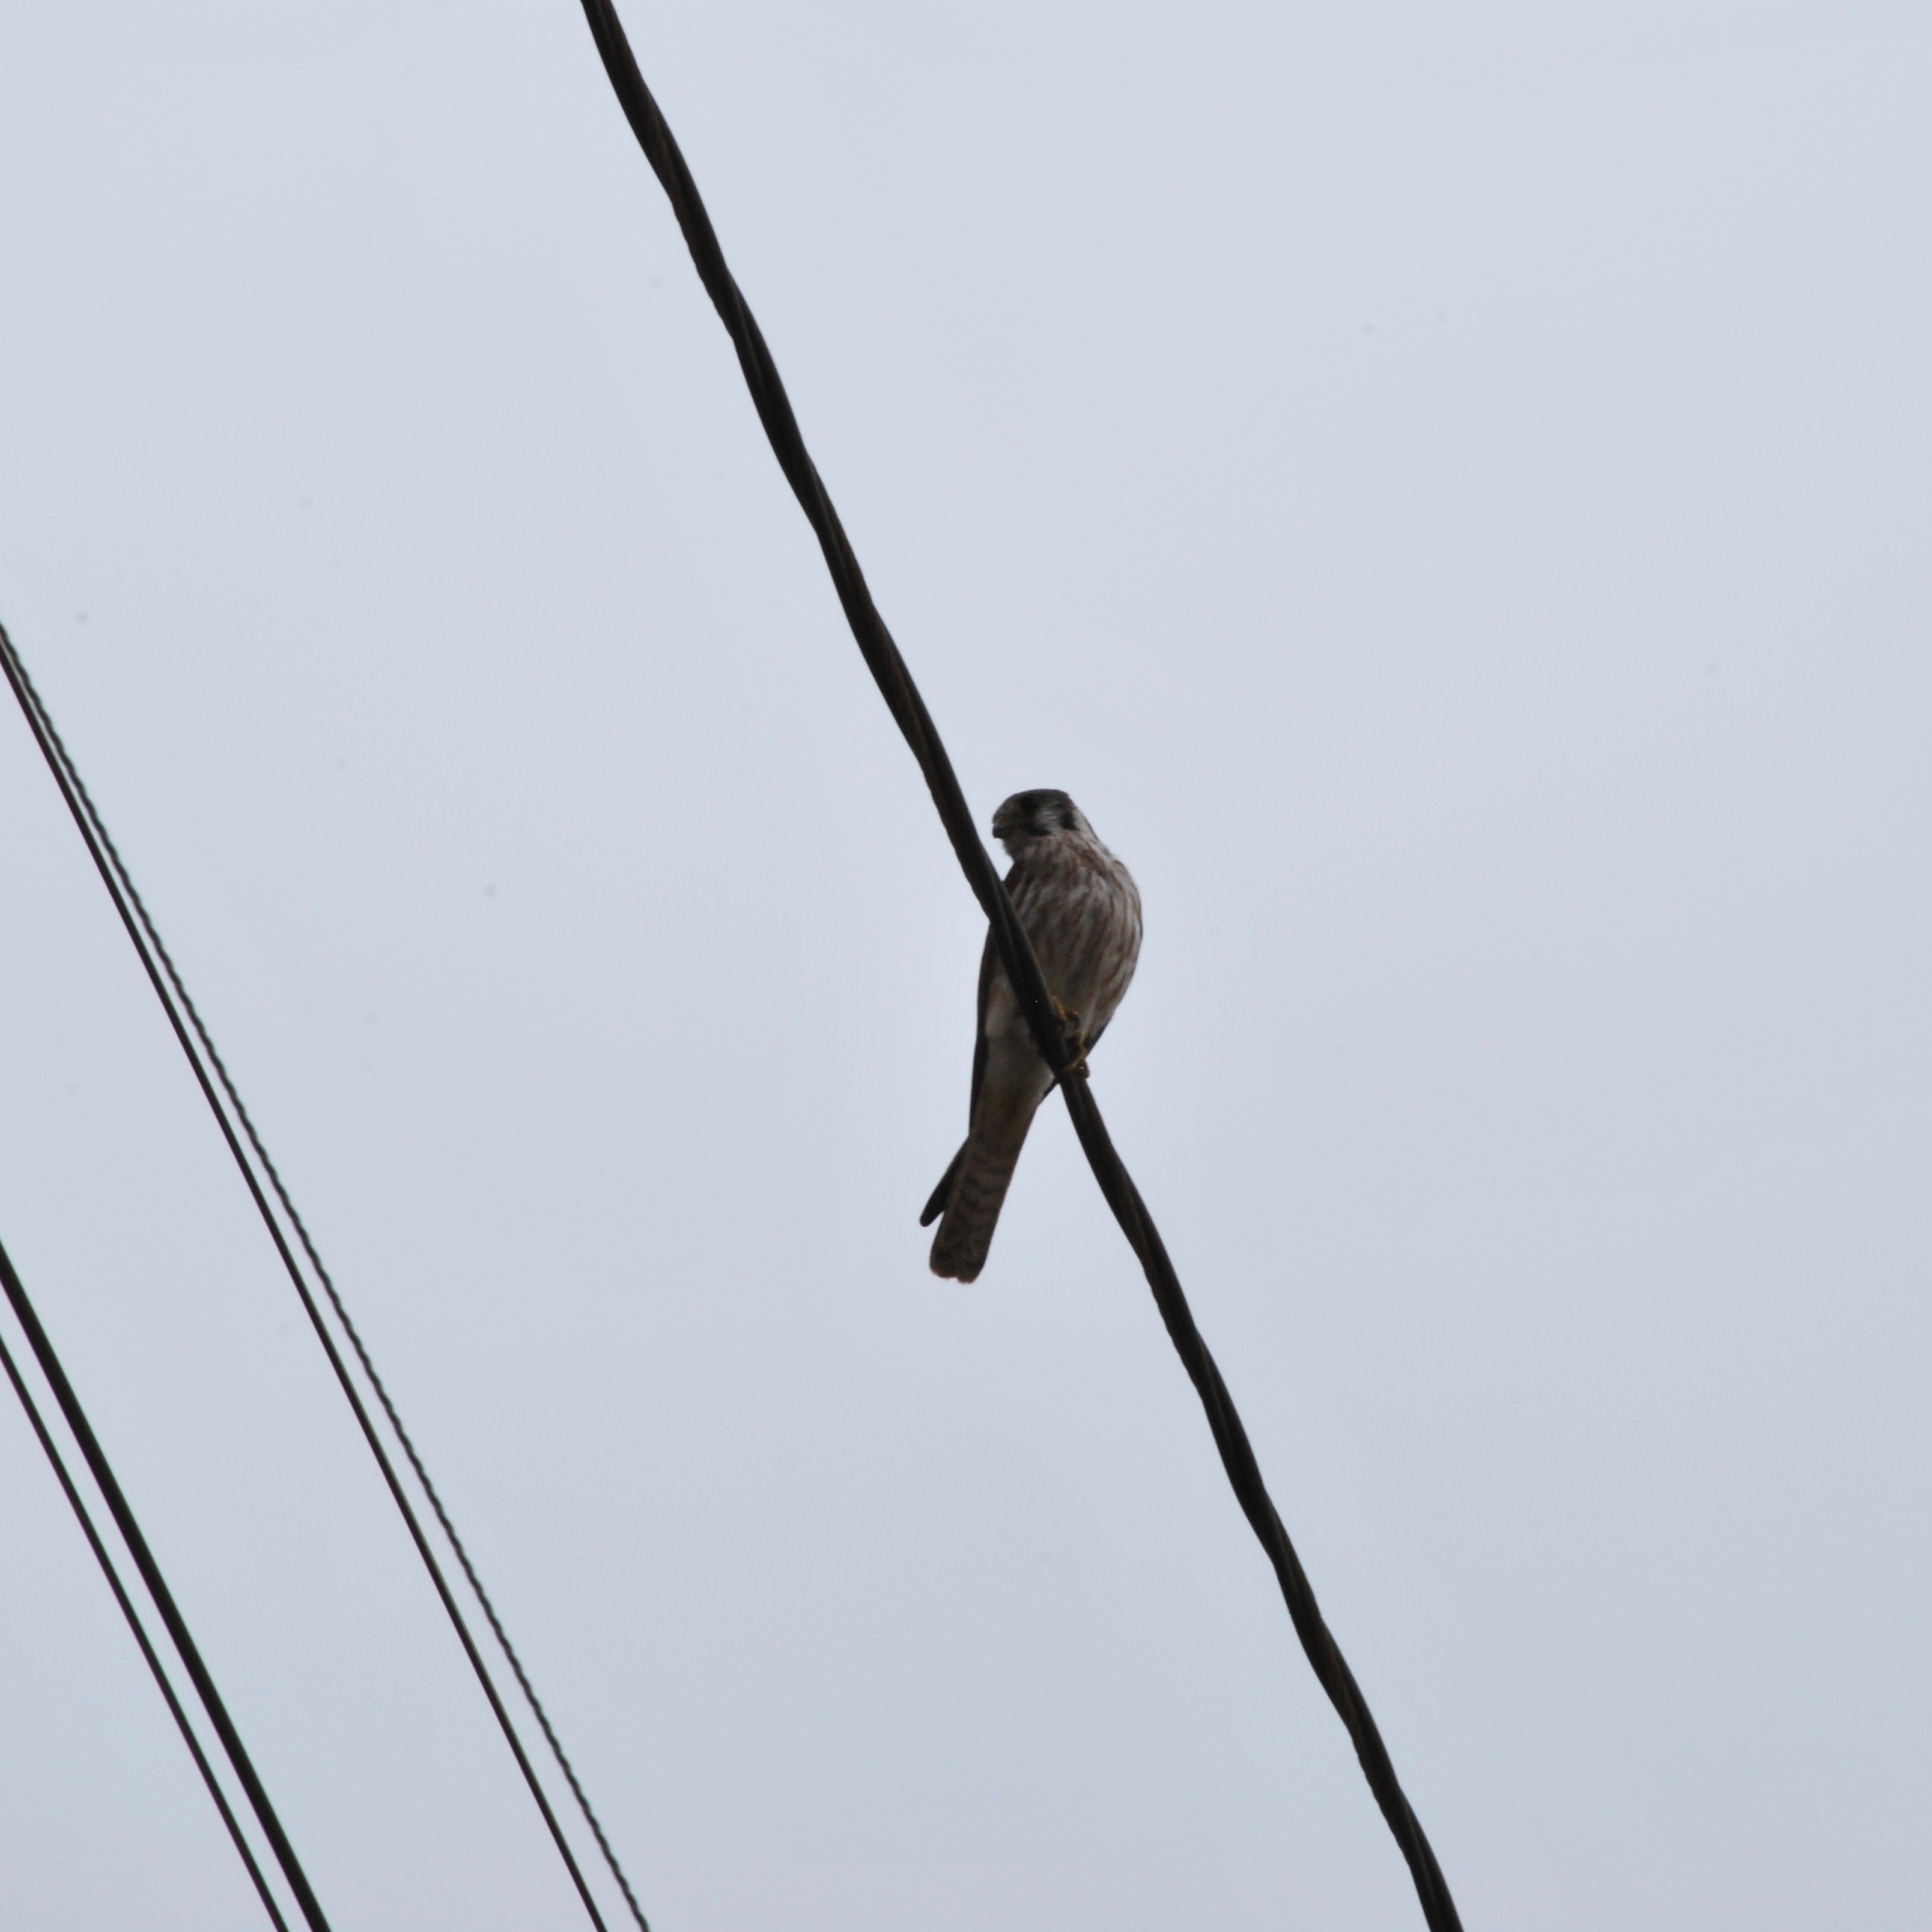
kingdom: Animalia
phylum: Chordata
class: Aves
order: Falconiformes
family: Falconidae
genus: Falco
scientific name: Falco sparverius
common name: American kestrel
